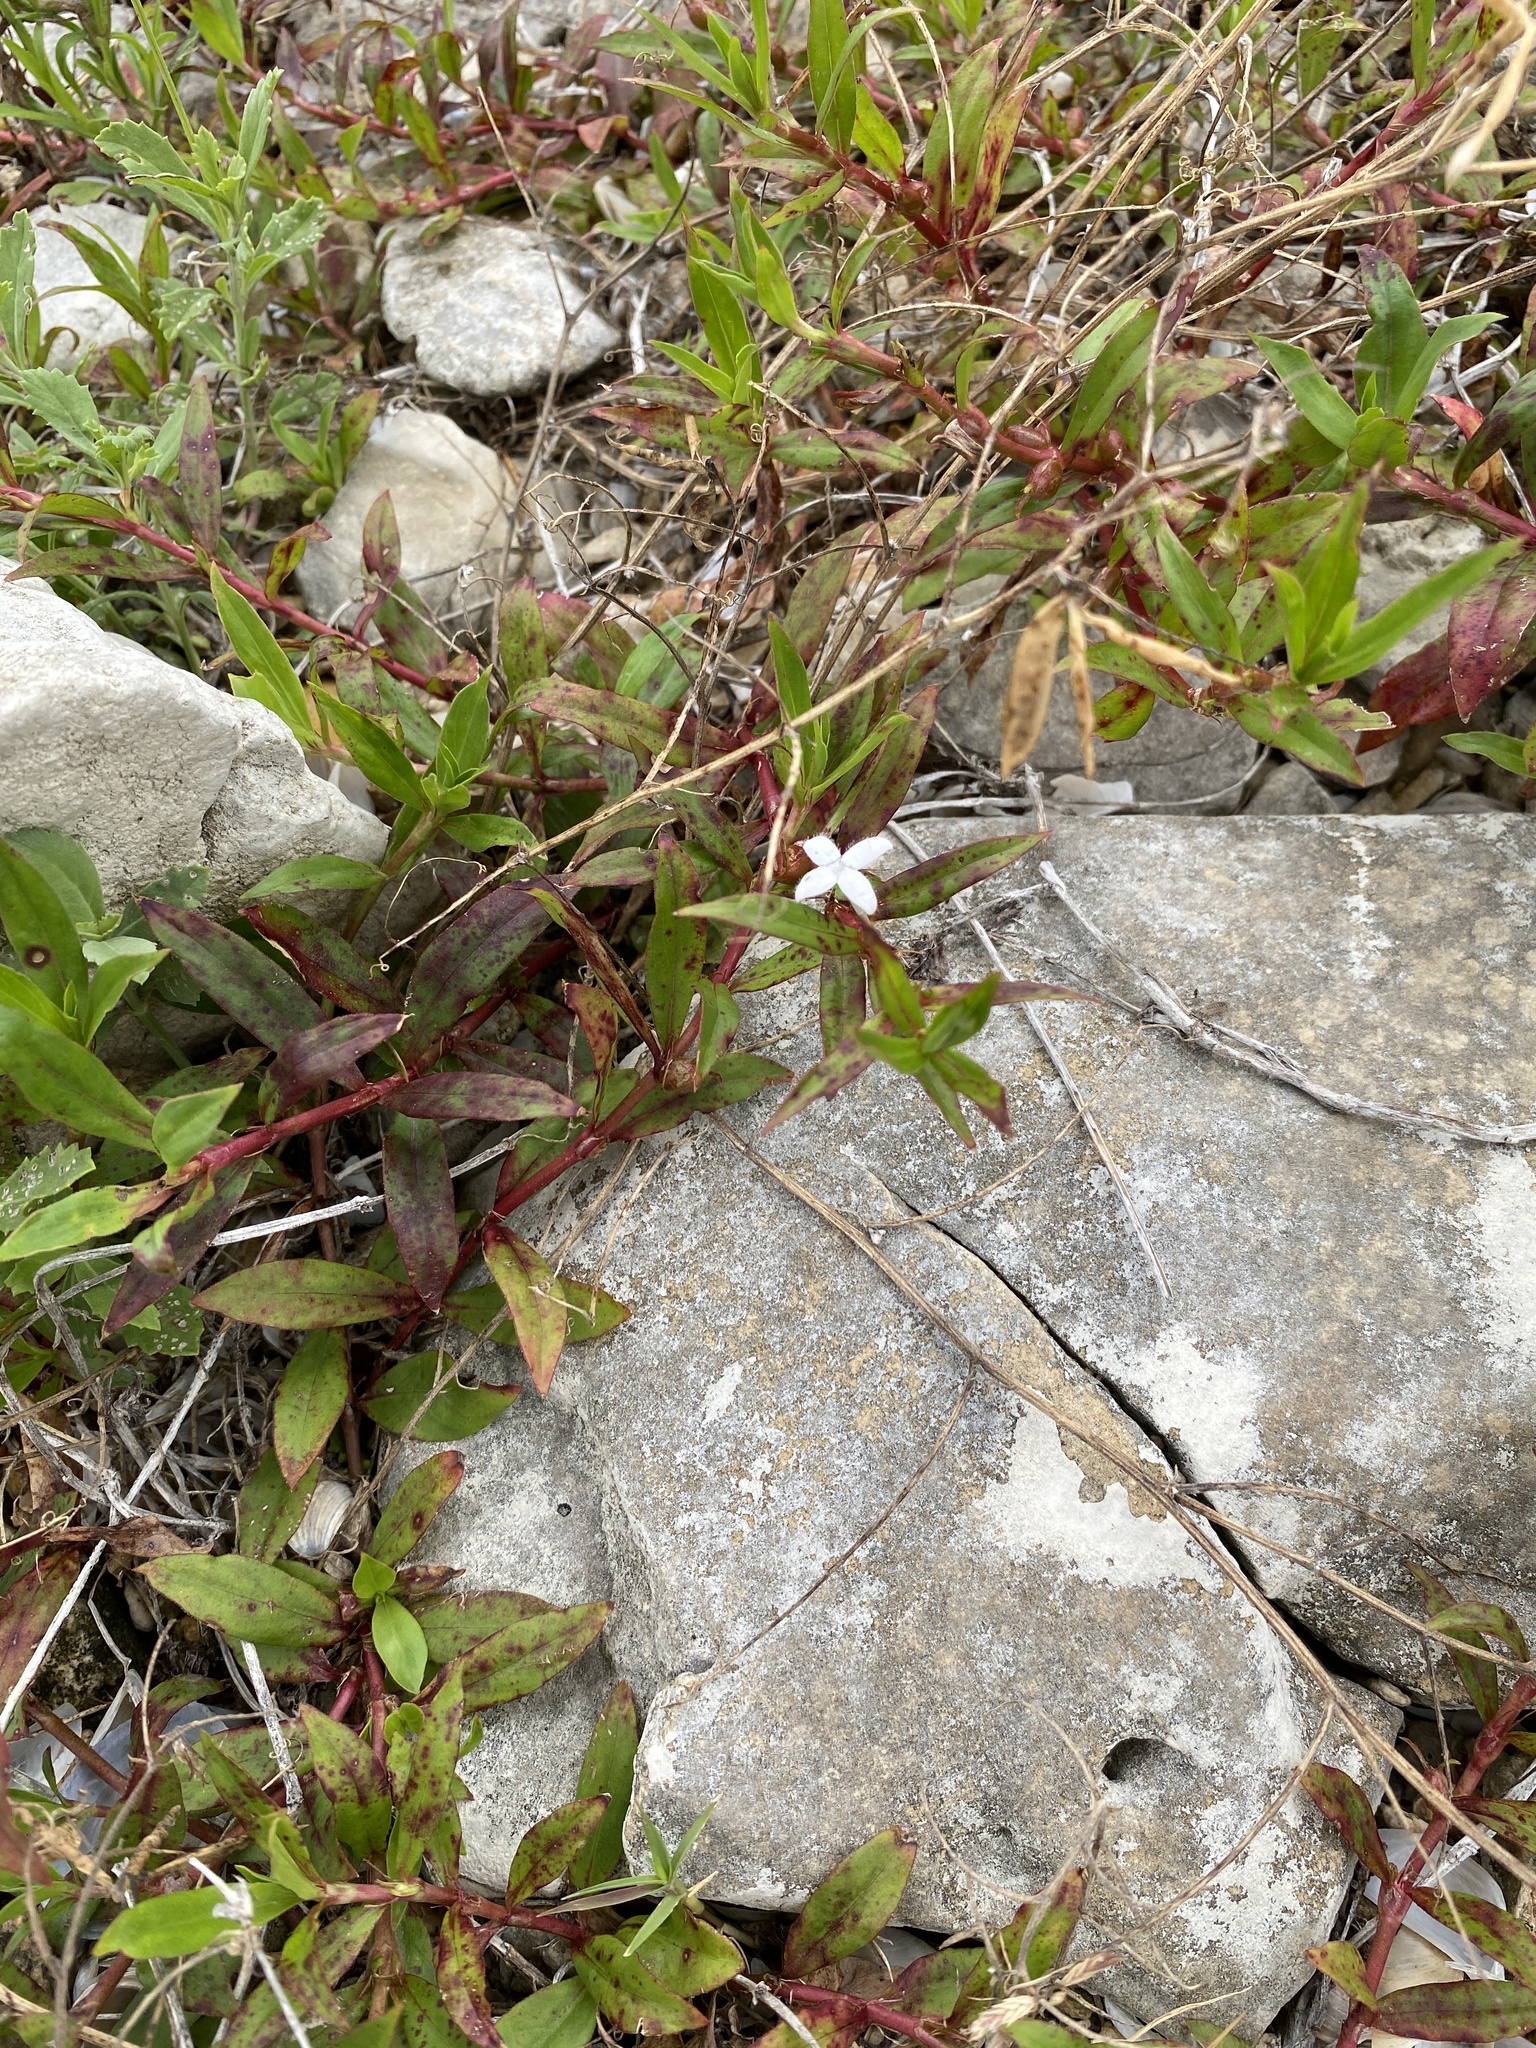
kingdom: Plantae
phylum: Tracheophyta
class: Magnoliopsida
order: Gentianales
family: Rubiaceae
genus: Diodia
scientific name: Diodia virginiana
